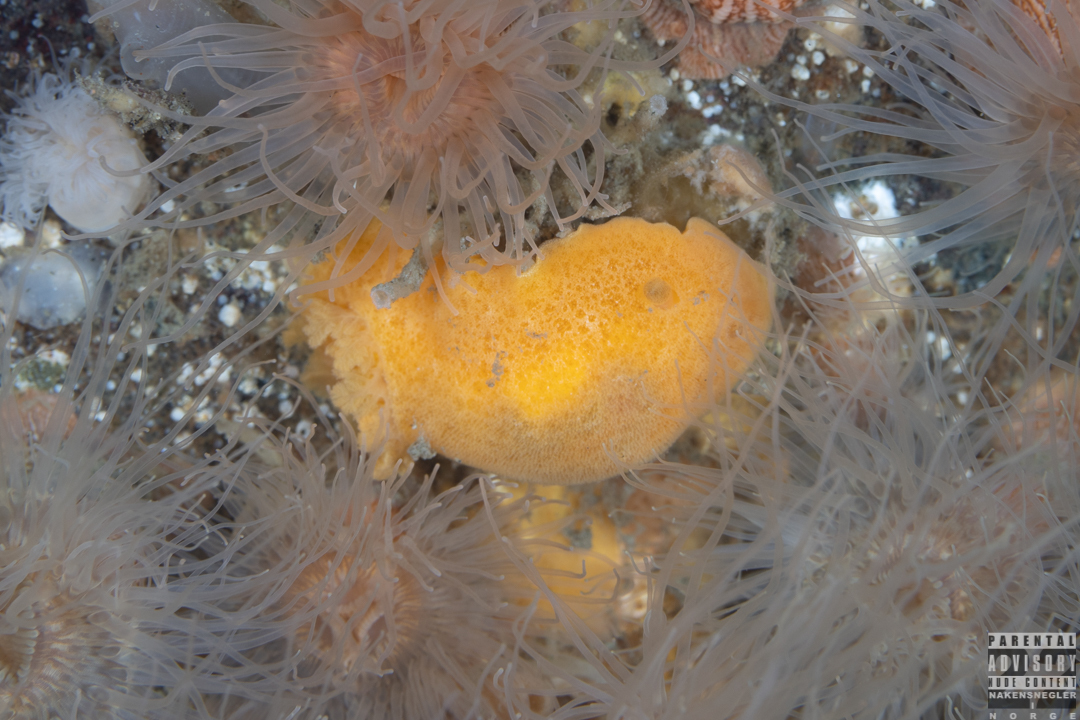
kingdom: Animalia
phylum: Mollusca
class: Gastropoda
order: Nudibranchia
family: Discodorididae
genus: Jorunna
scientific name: Jorunna tomentosa
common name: Grey sea slug
